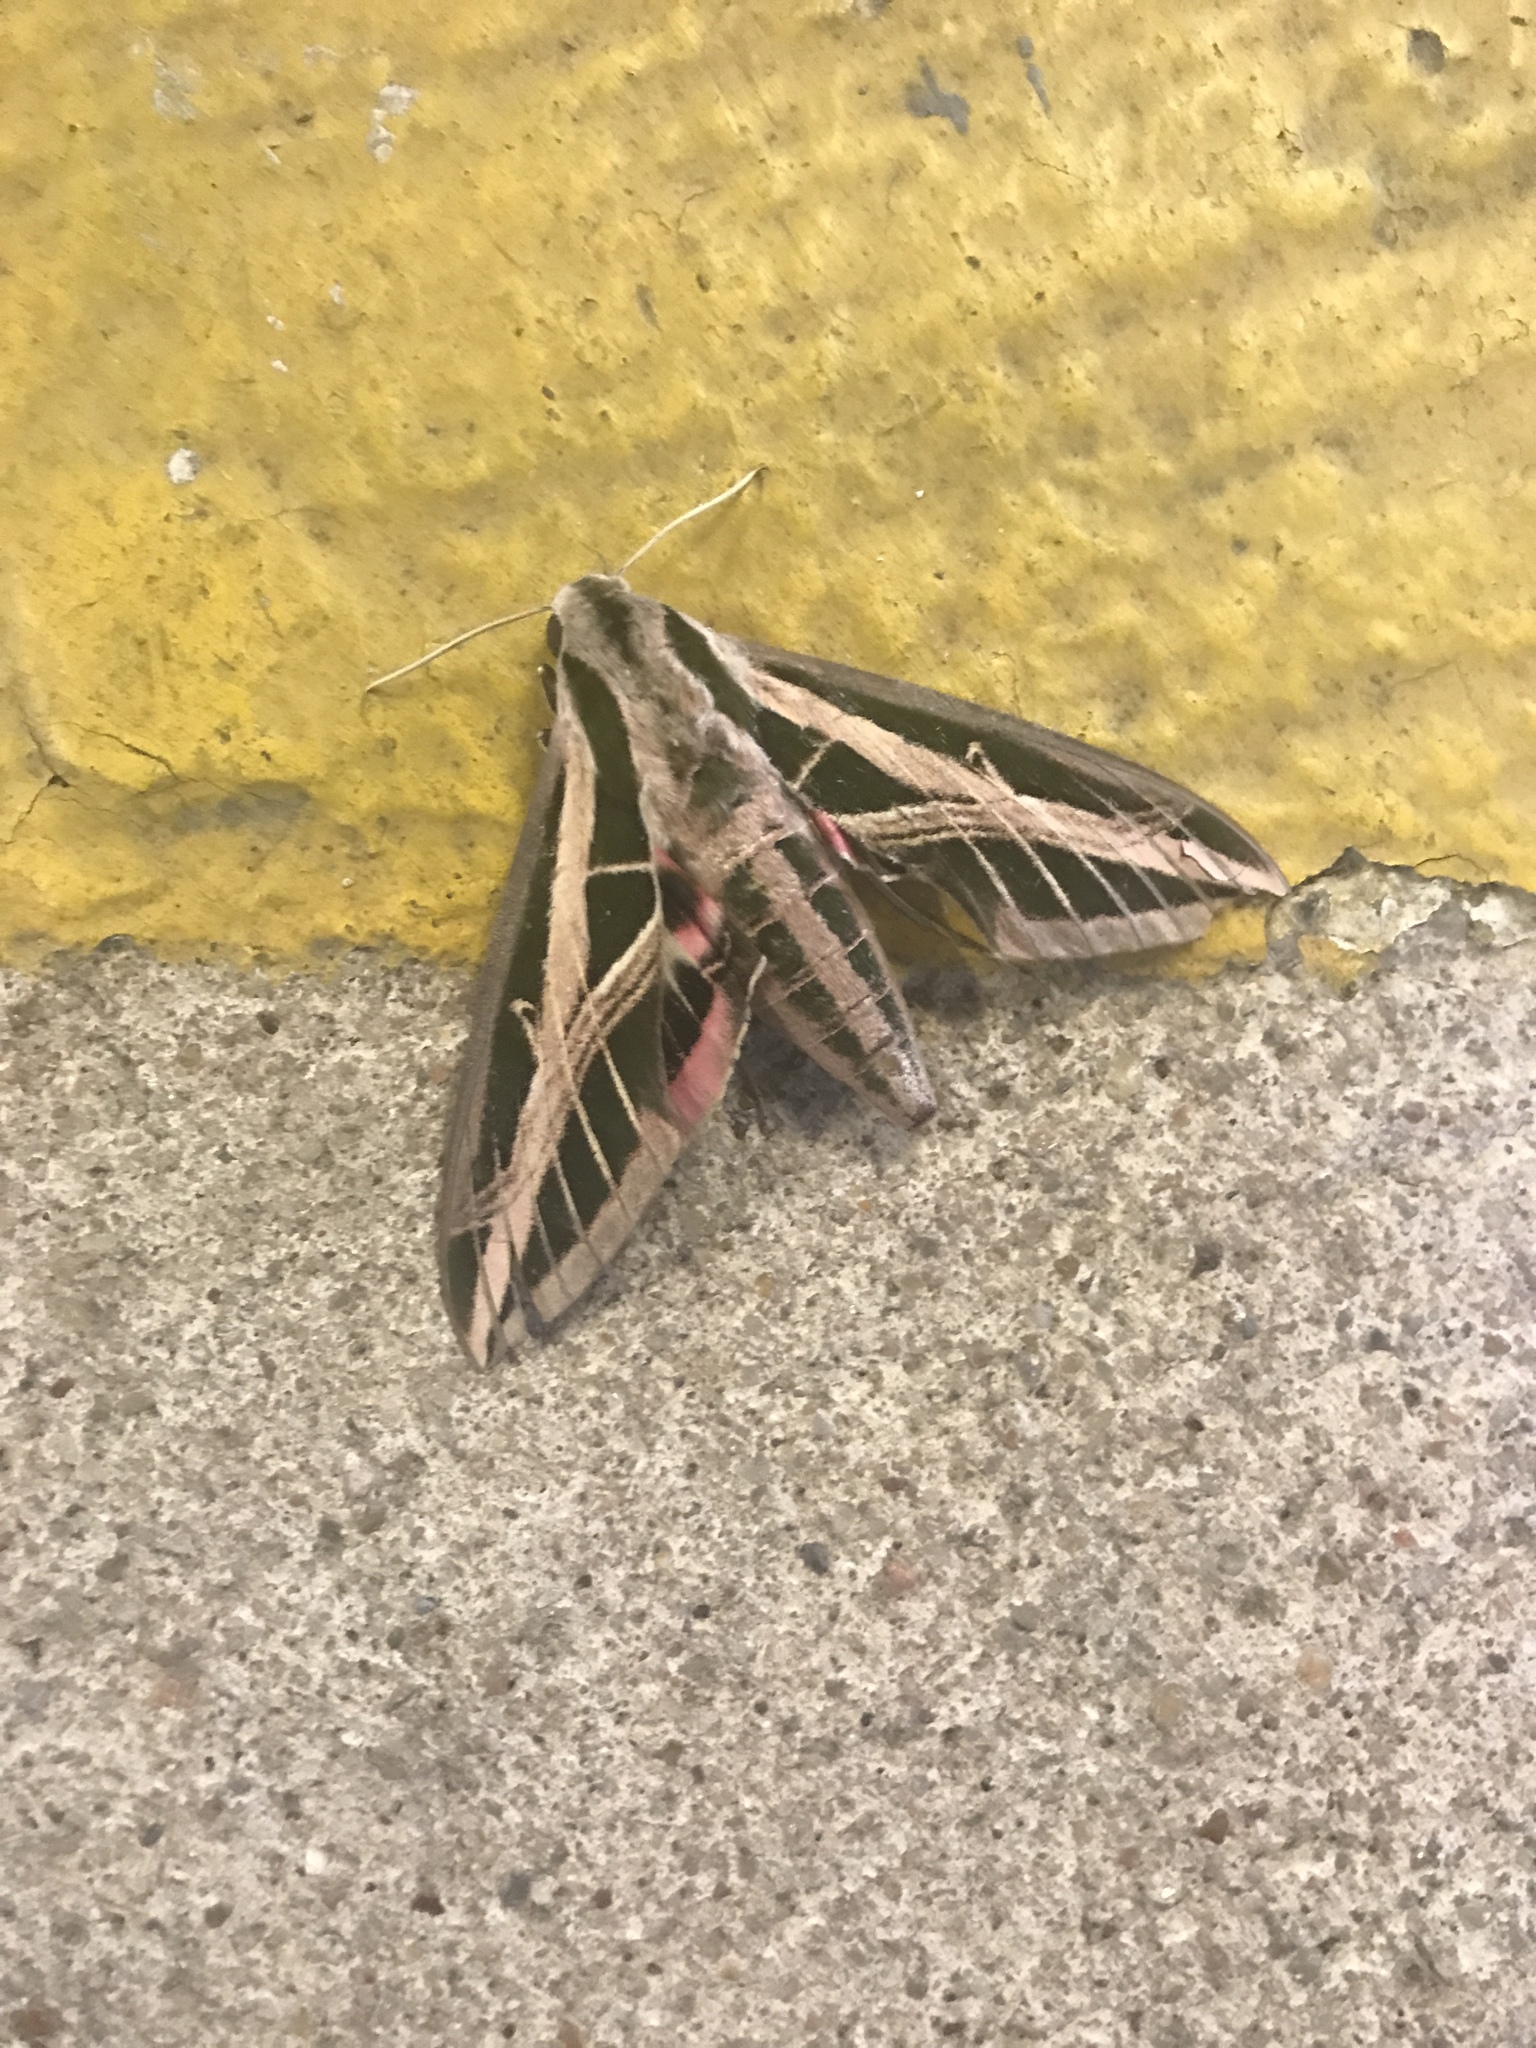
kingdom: Animalia
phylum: Arthropoda
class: Insecta
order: Lepidoptera
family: Sphingidae
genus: Eumorpha
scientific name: Eumorpha fasciatus
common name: Banded sphinx
